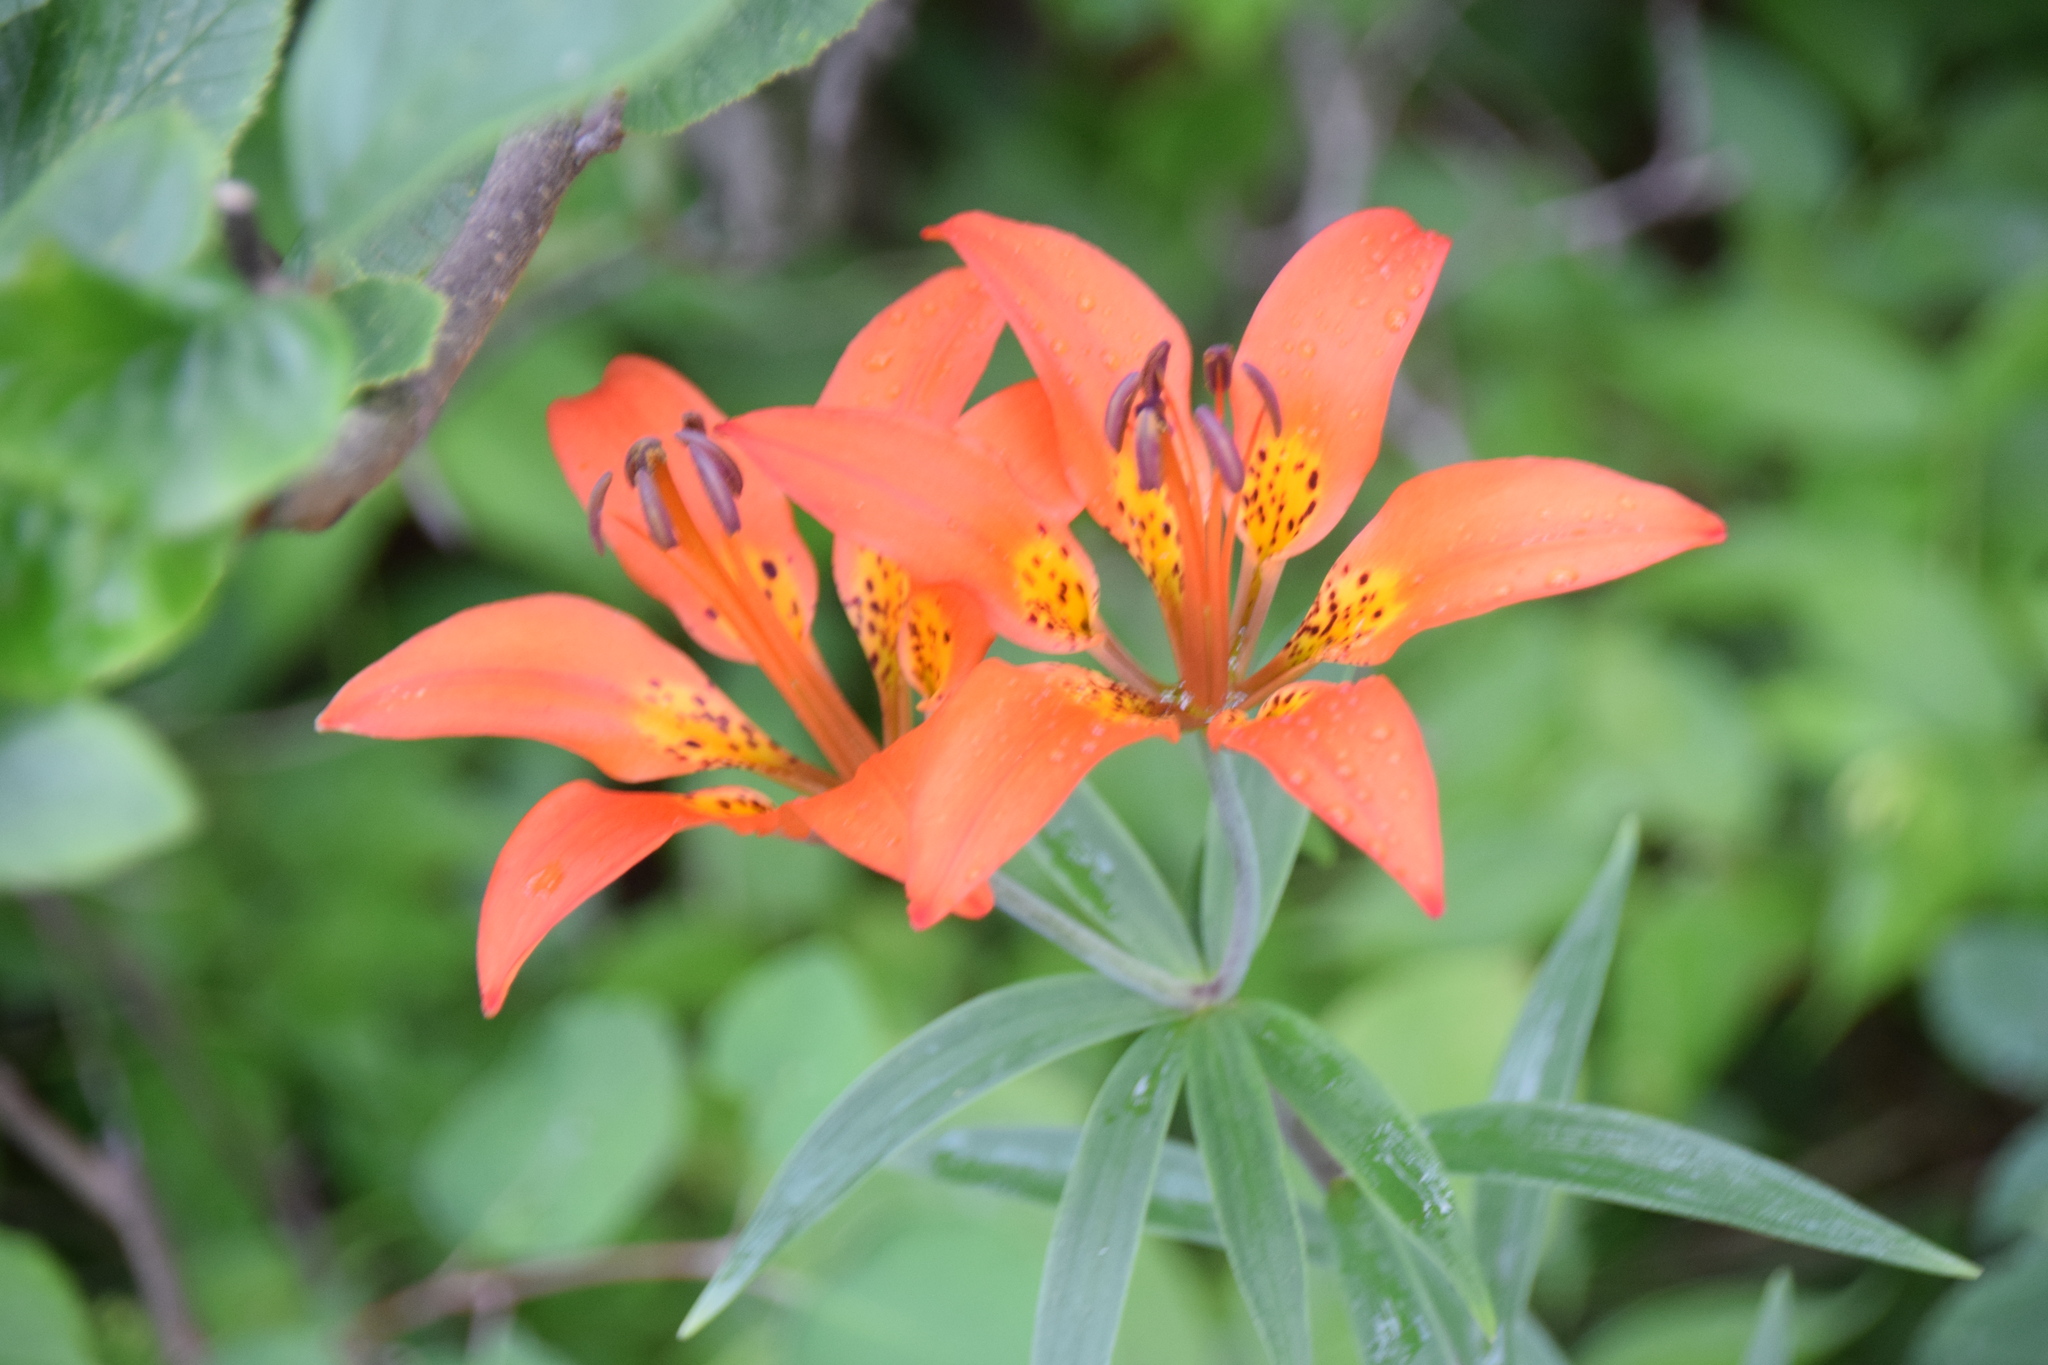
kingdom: Plantae
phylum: Tracheophyta
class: Liliopsida
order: Liliales
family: Liliaceae
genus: Lilium
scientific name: Lilium philadelphicum
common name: Red lily
